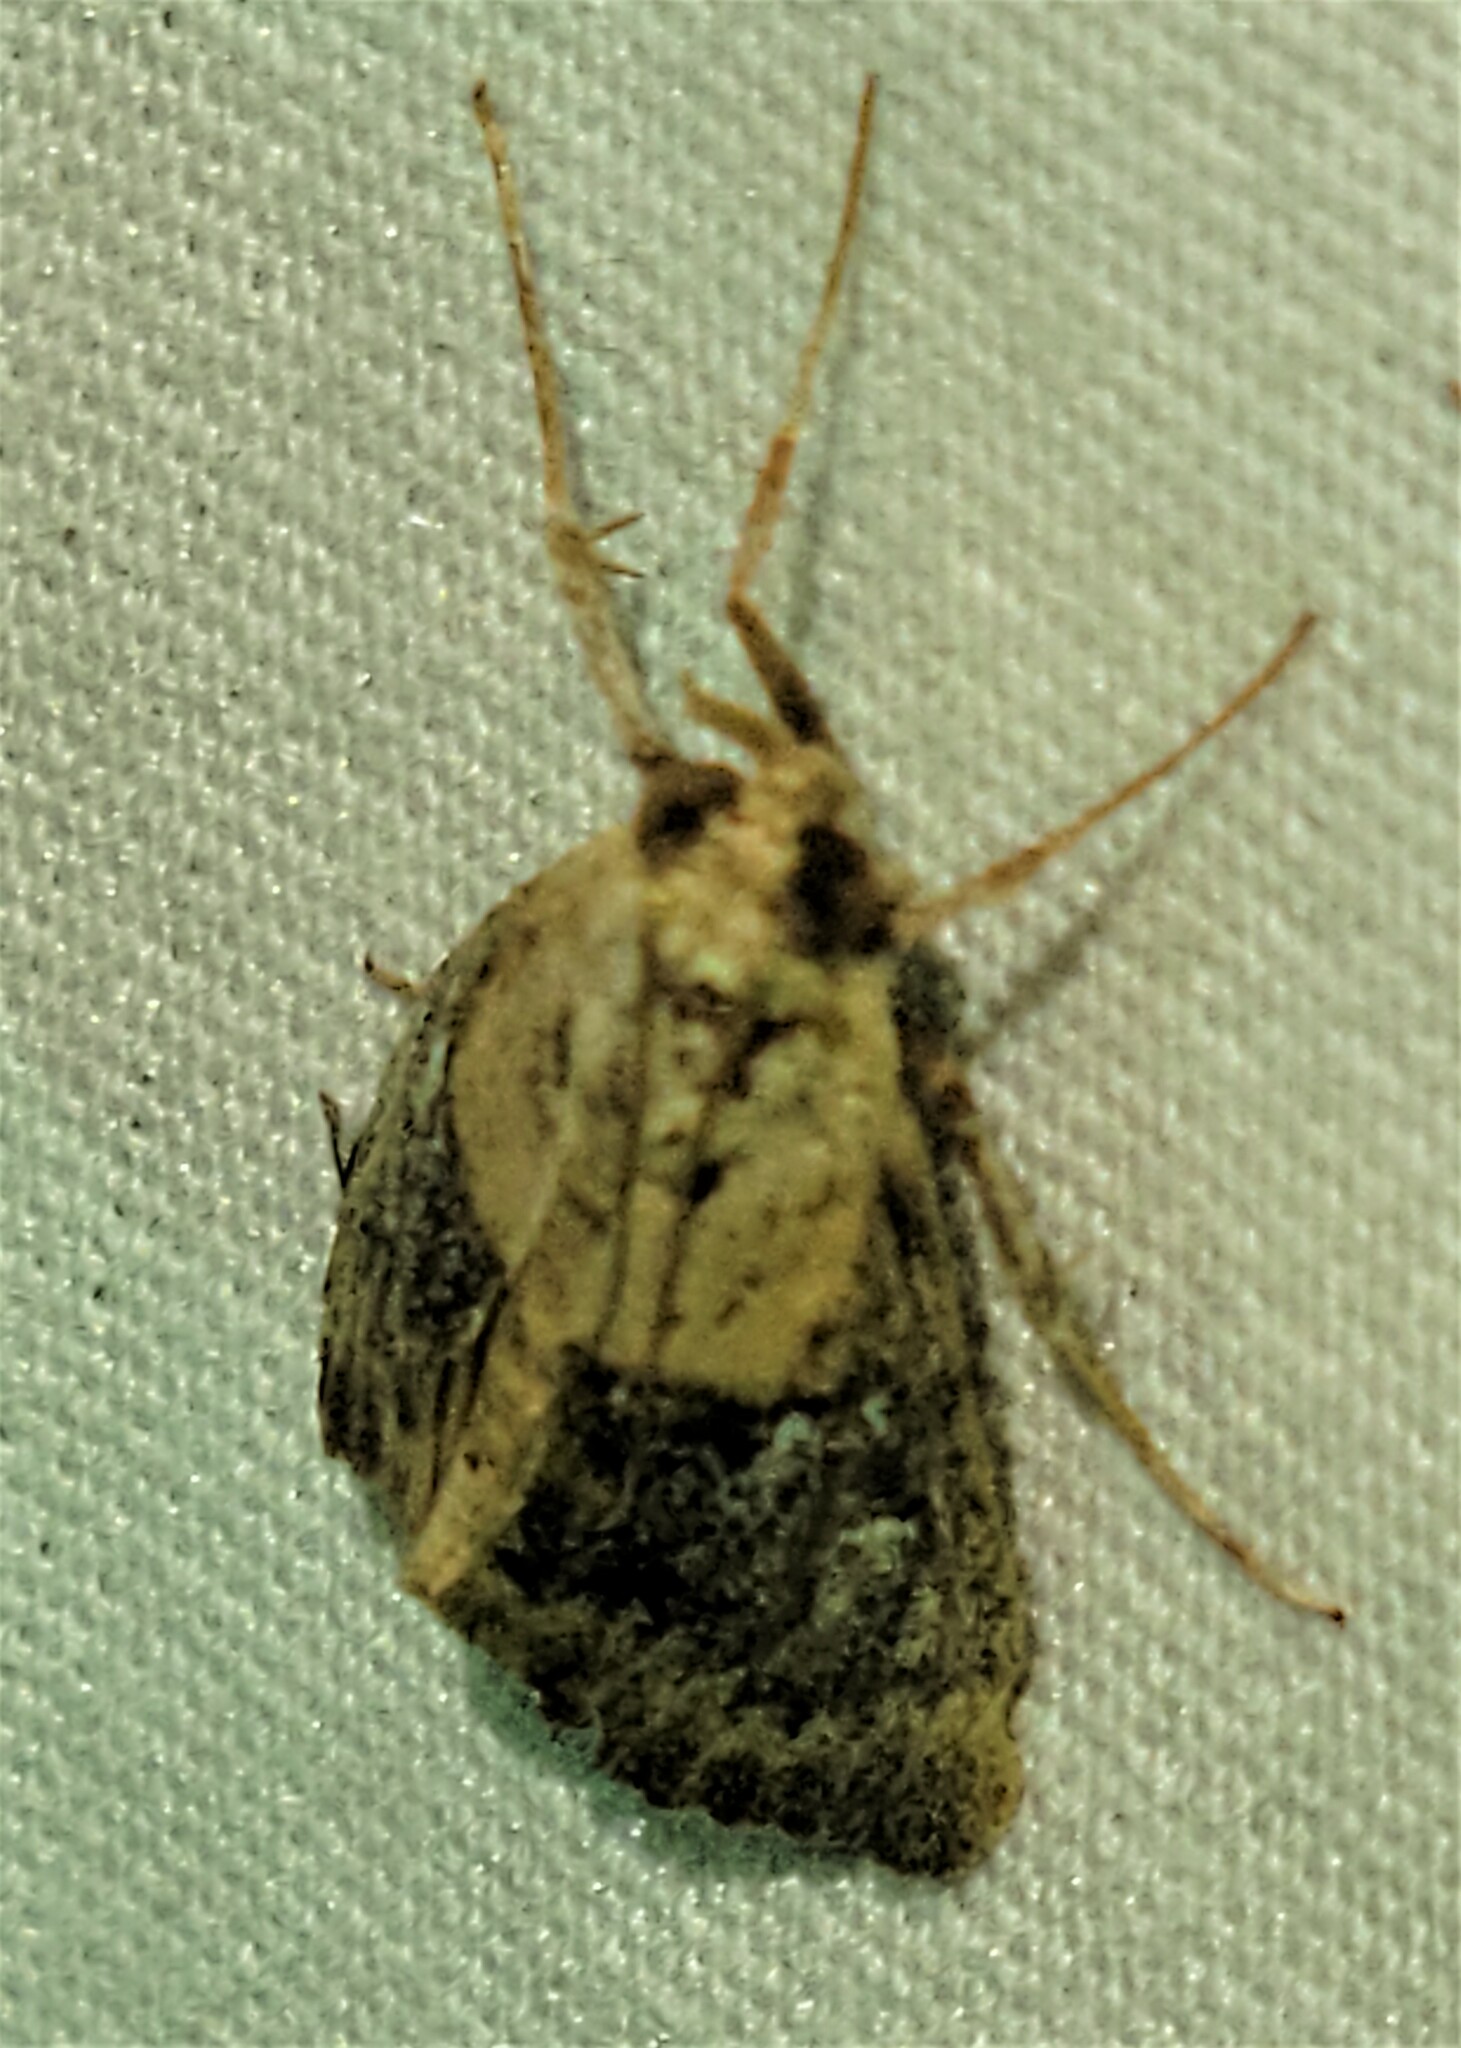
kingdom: Animalia
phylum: Arthropoda
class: Insecta
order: Lepidoptera
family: Pyralidae
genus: Cacozelia
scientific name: Cacozelia elegans
